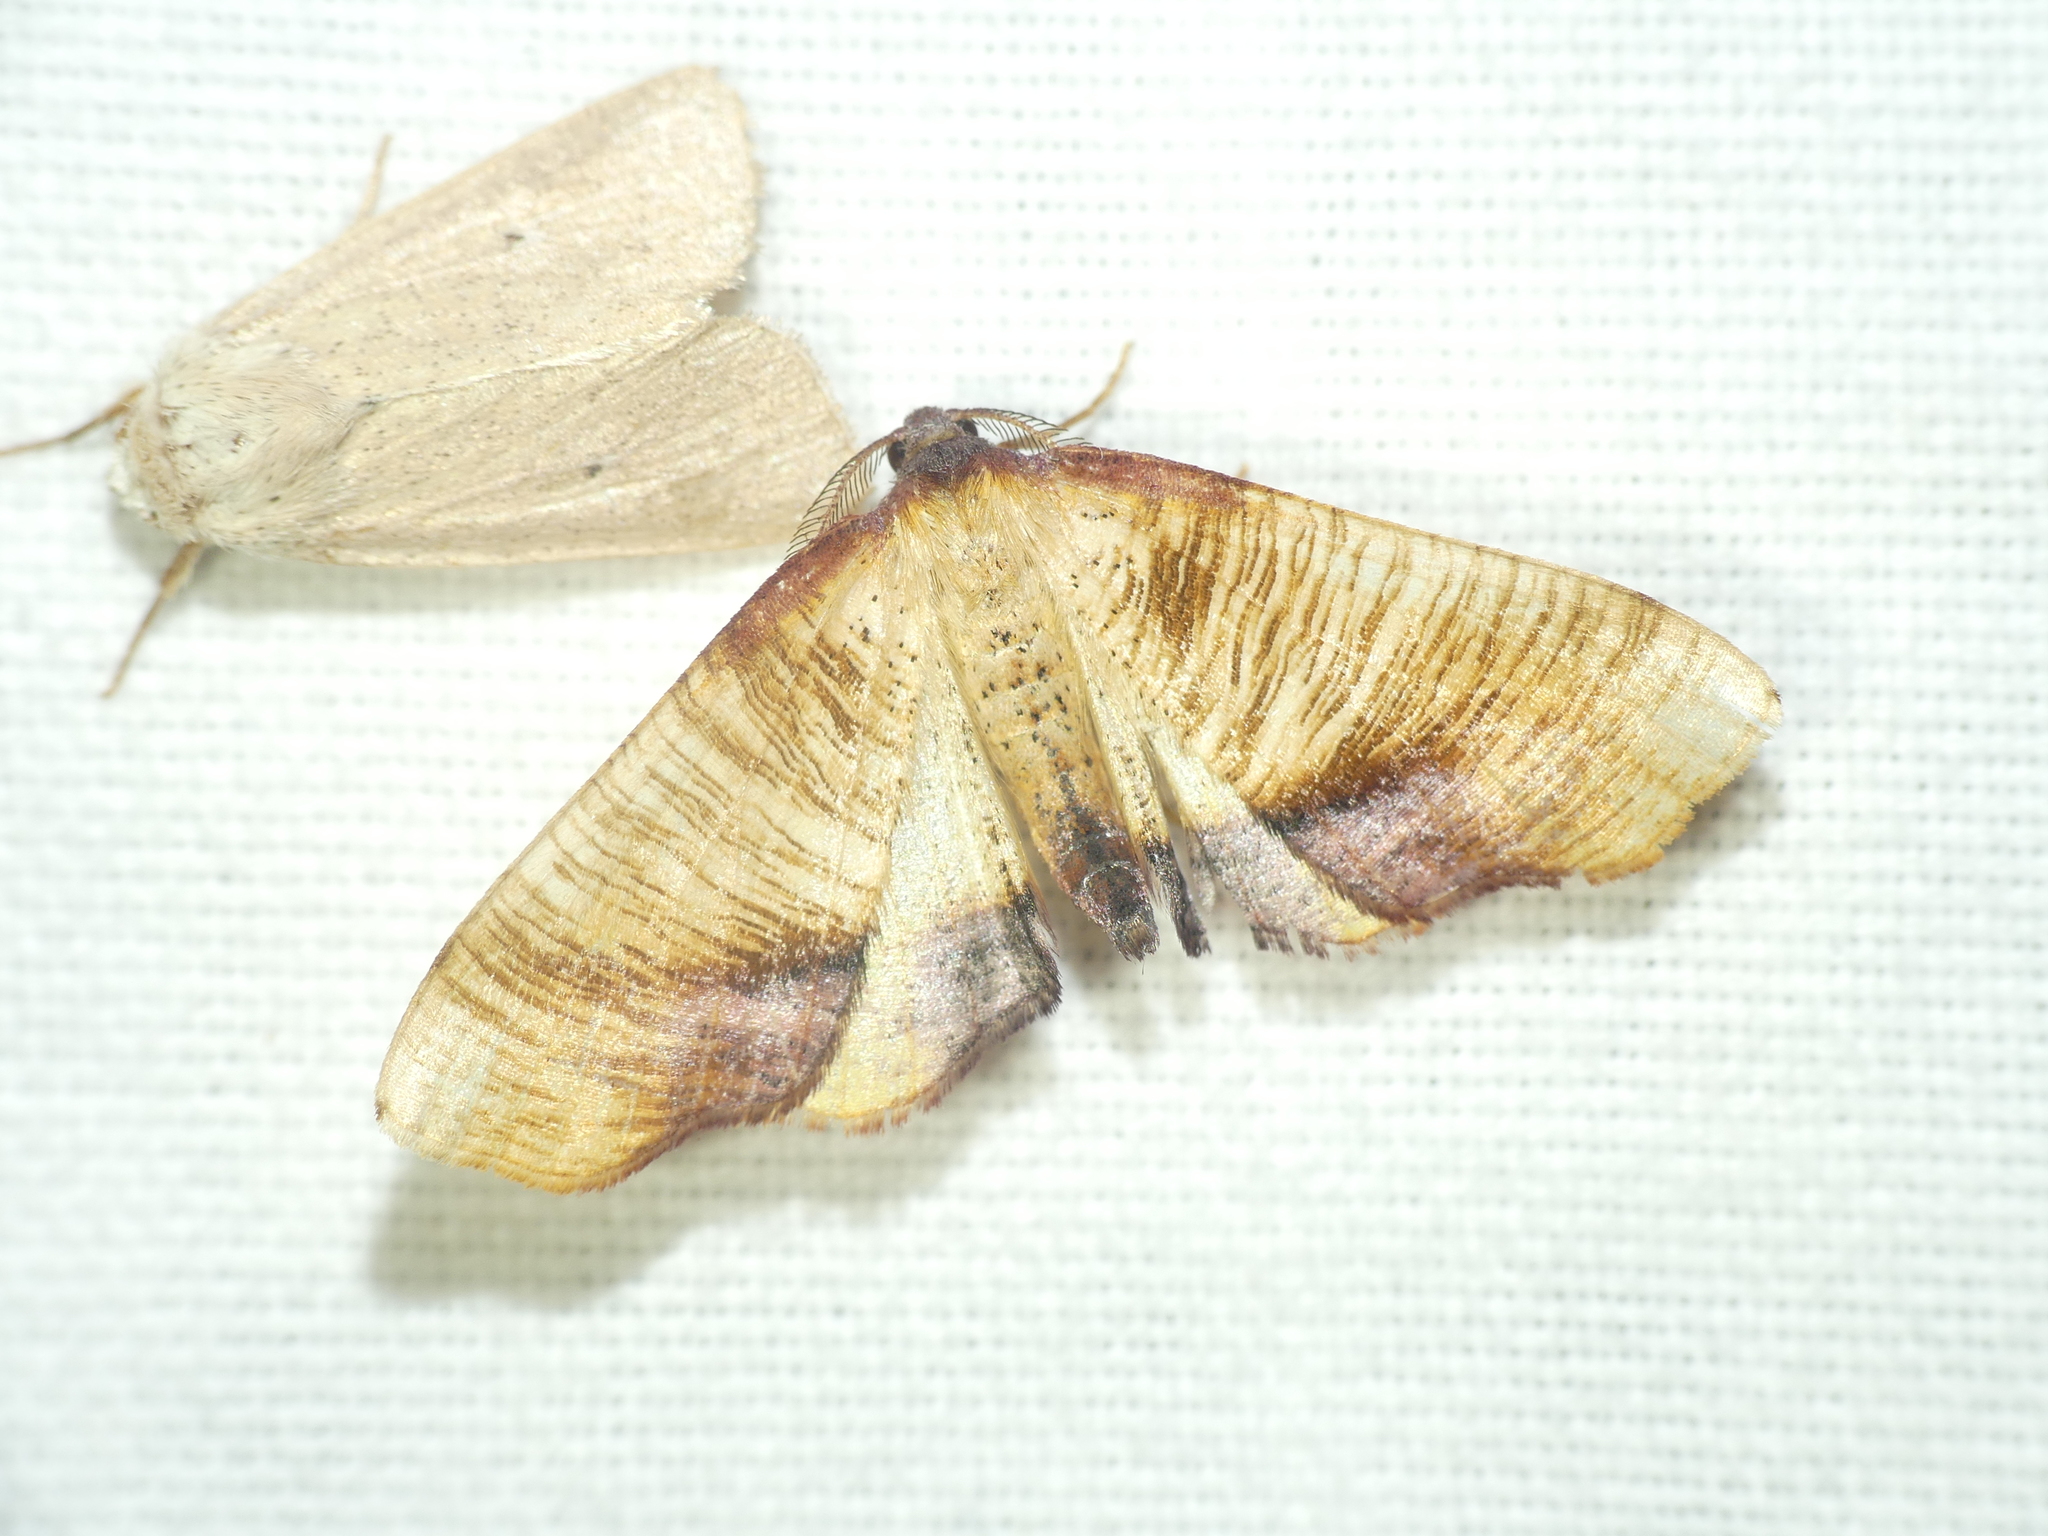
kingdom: Animalia
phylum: Arthropoda
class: Insecta
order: Lepidoptera
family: Geometridae
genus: Plagodis
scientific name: Plagodis dolabraria
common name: Scorched wing
